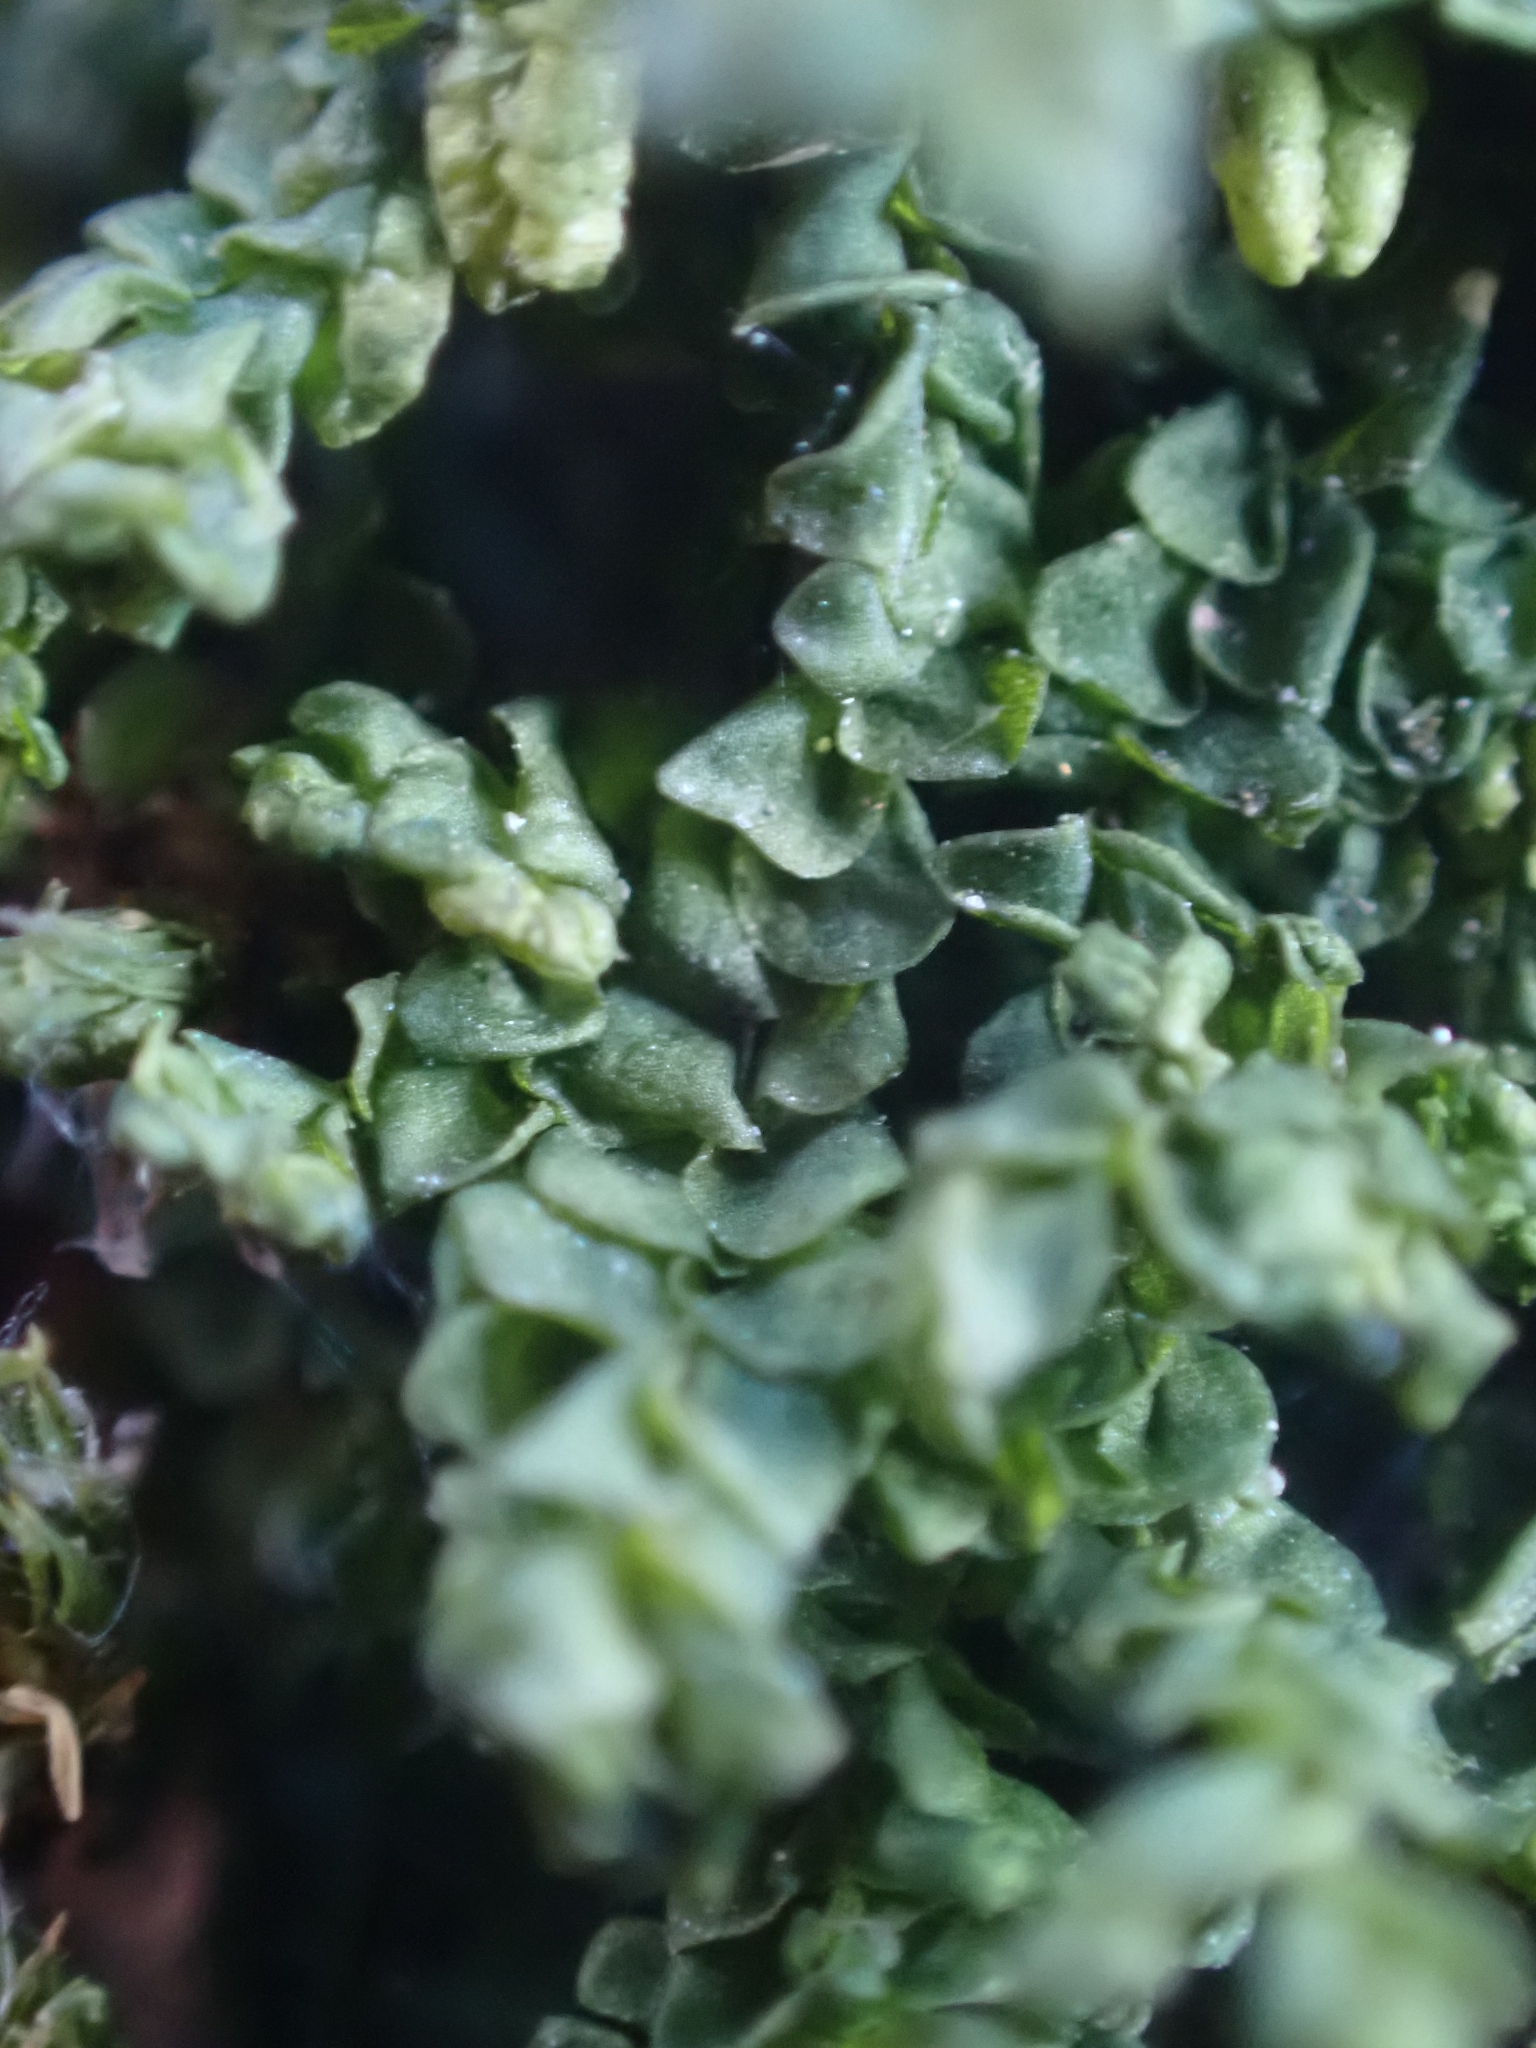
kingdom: Plantae
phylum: Marchantiophyta
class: Jungermanniopsida
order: Porellales
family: Porellaceae
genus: Porella
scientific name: Porella platyphylla
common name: Wall scalewort
